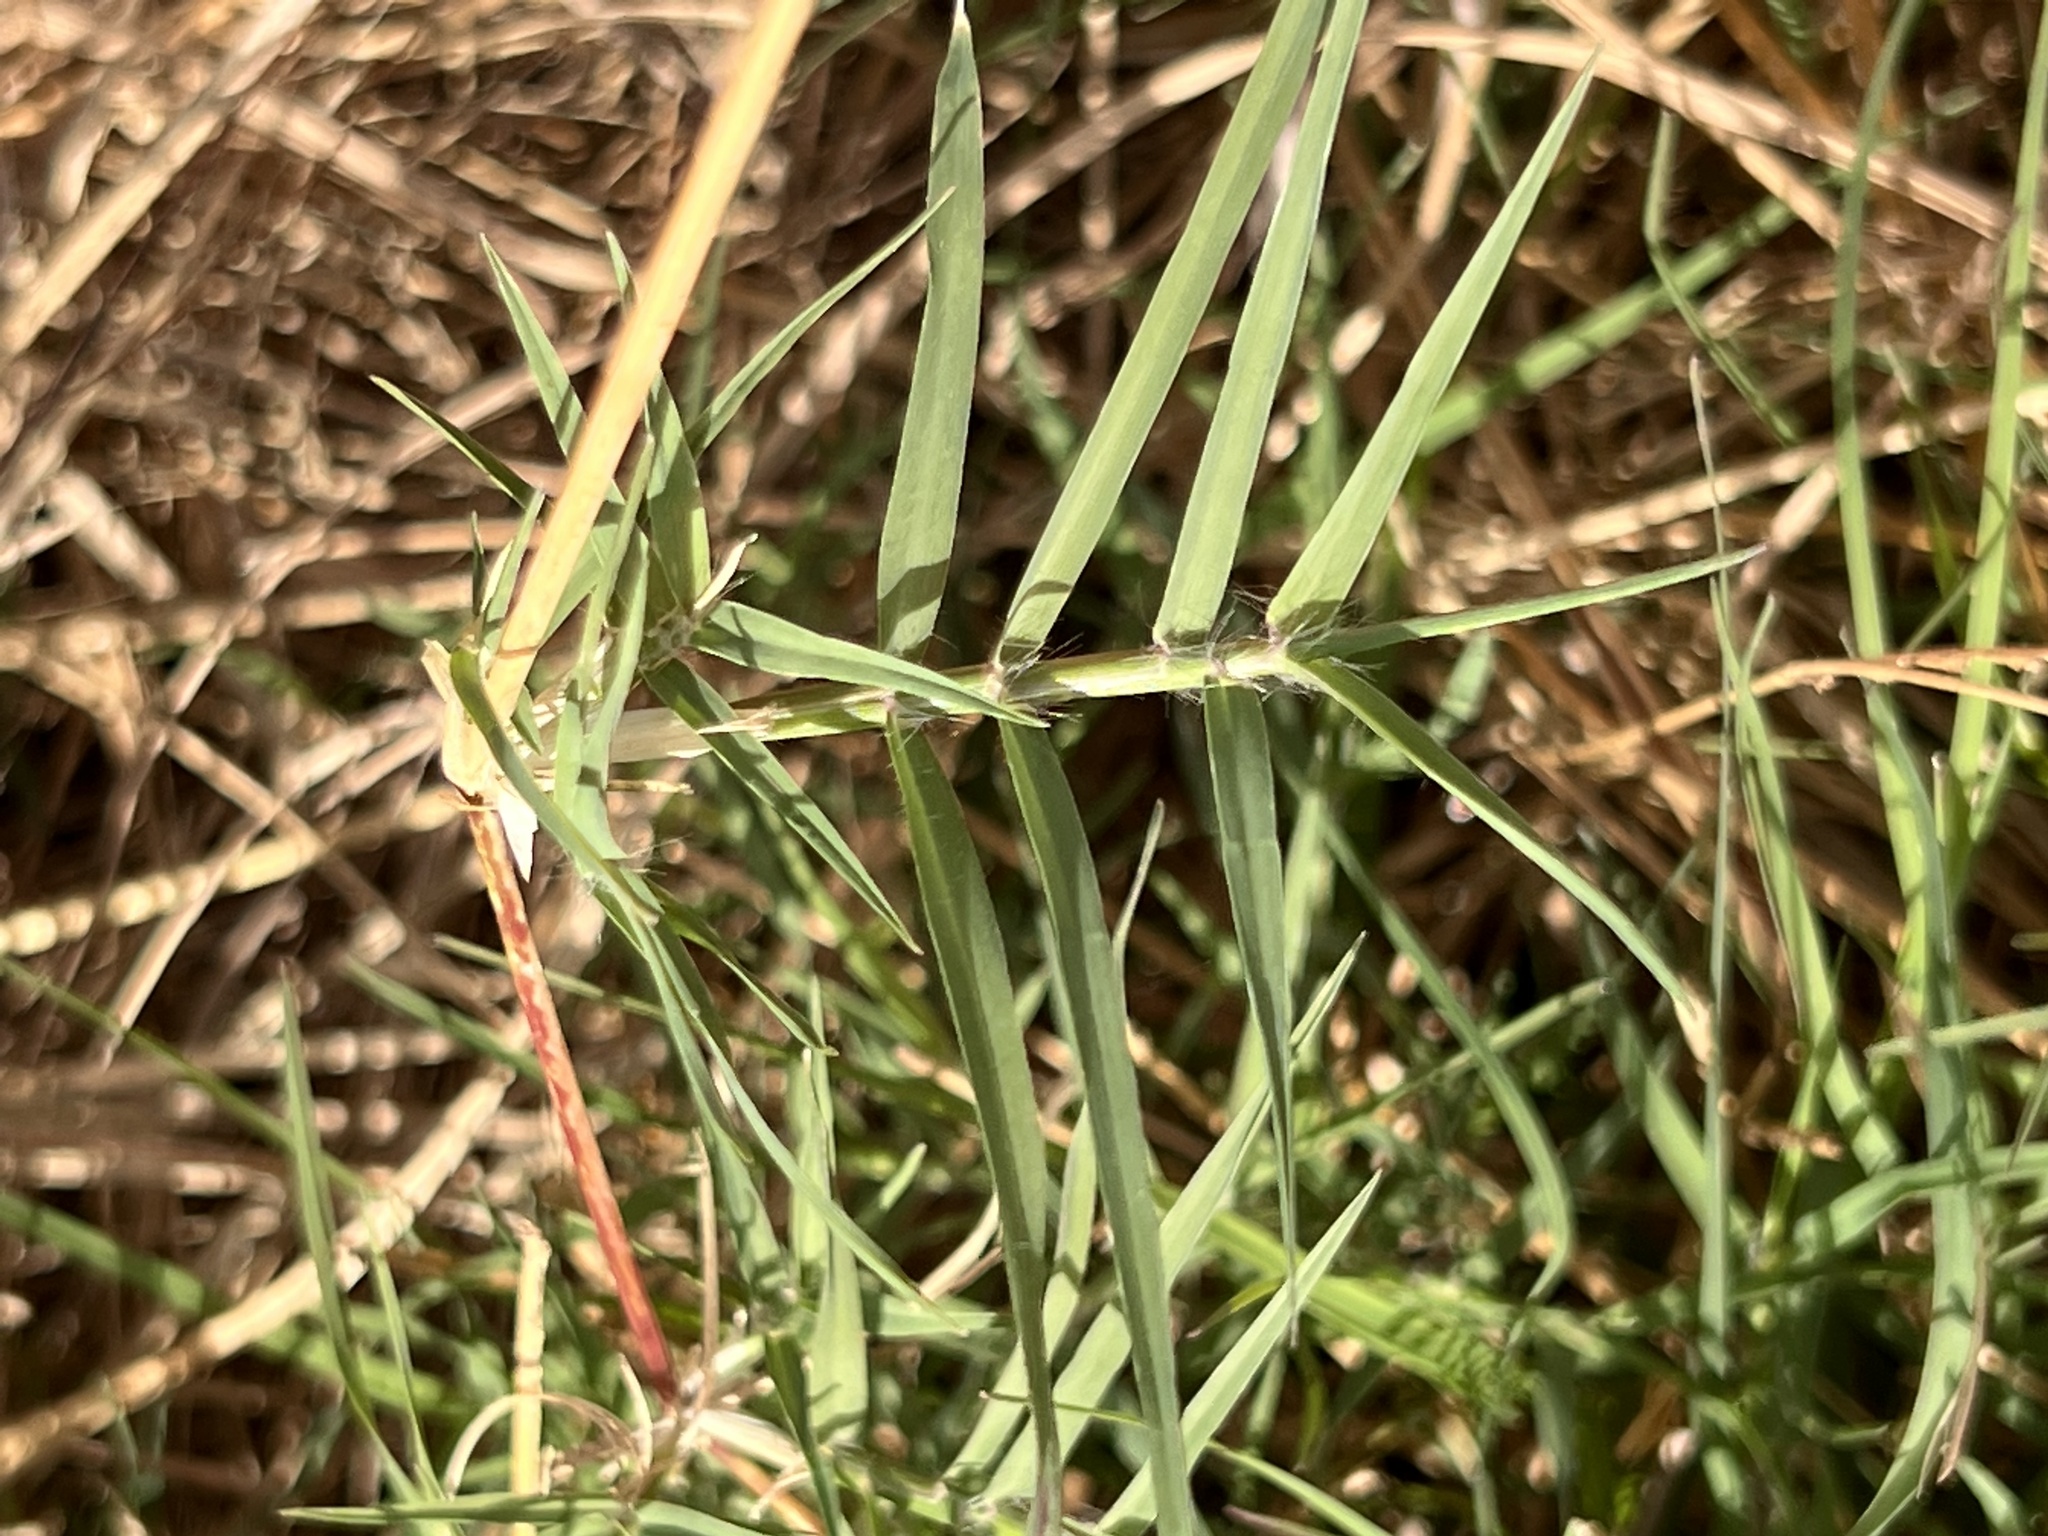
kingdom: Plantae
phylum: Tracheophyta
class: Liliopsida
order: Poales
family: Poaceae
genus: Cynodon
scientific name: Cynodon dactylon
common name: Bermuda grass
